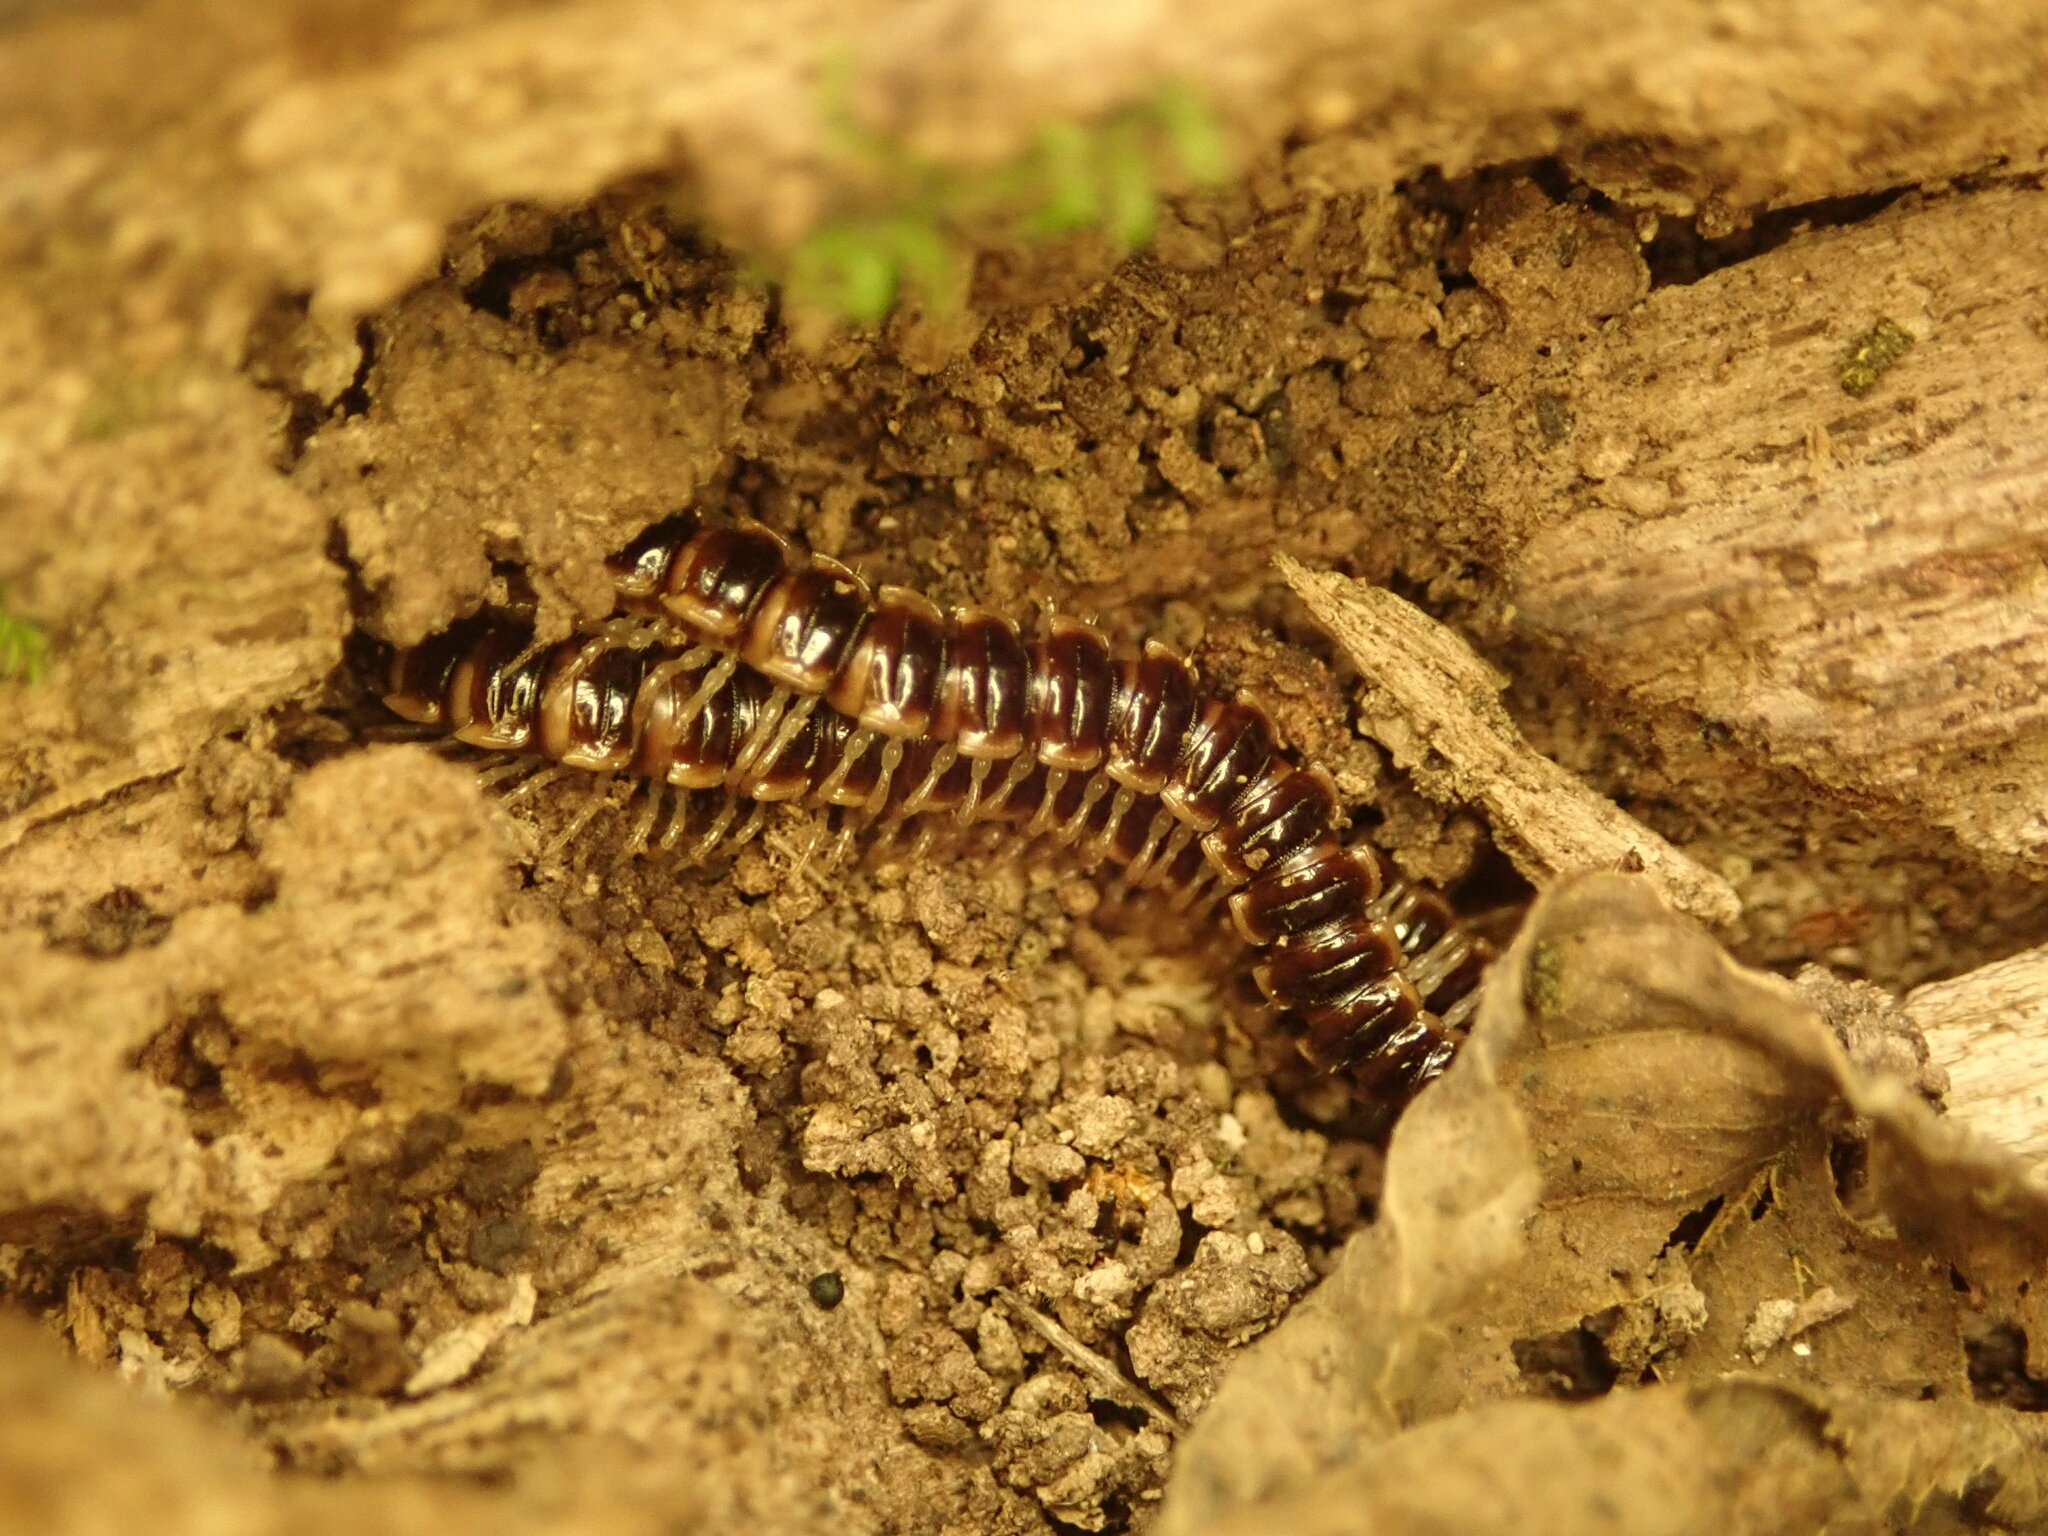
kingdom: Animalia
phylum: Arthropoda
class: Diplopoda
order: Polydesmida
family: Paradoxosomatidae
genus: Oxidus
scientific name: Oxidus gracilis
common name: Greenhouse millipede
